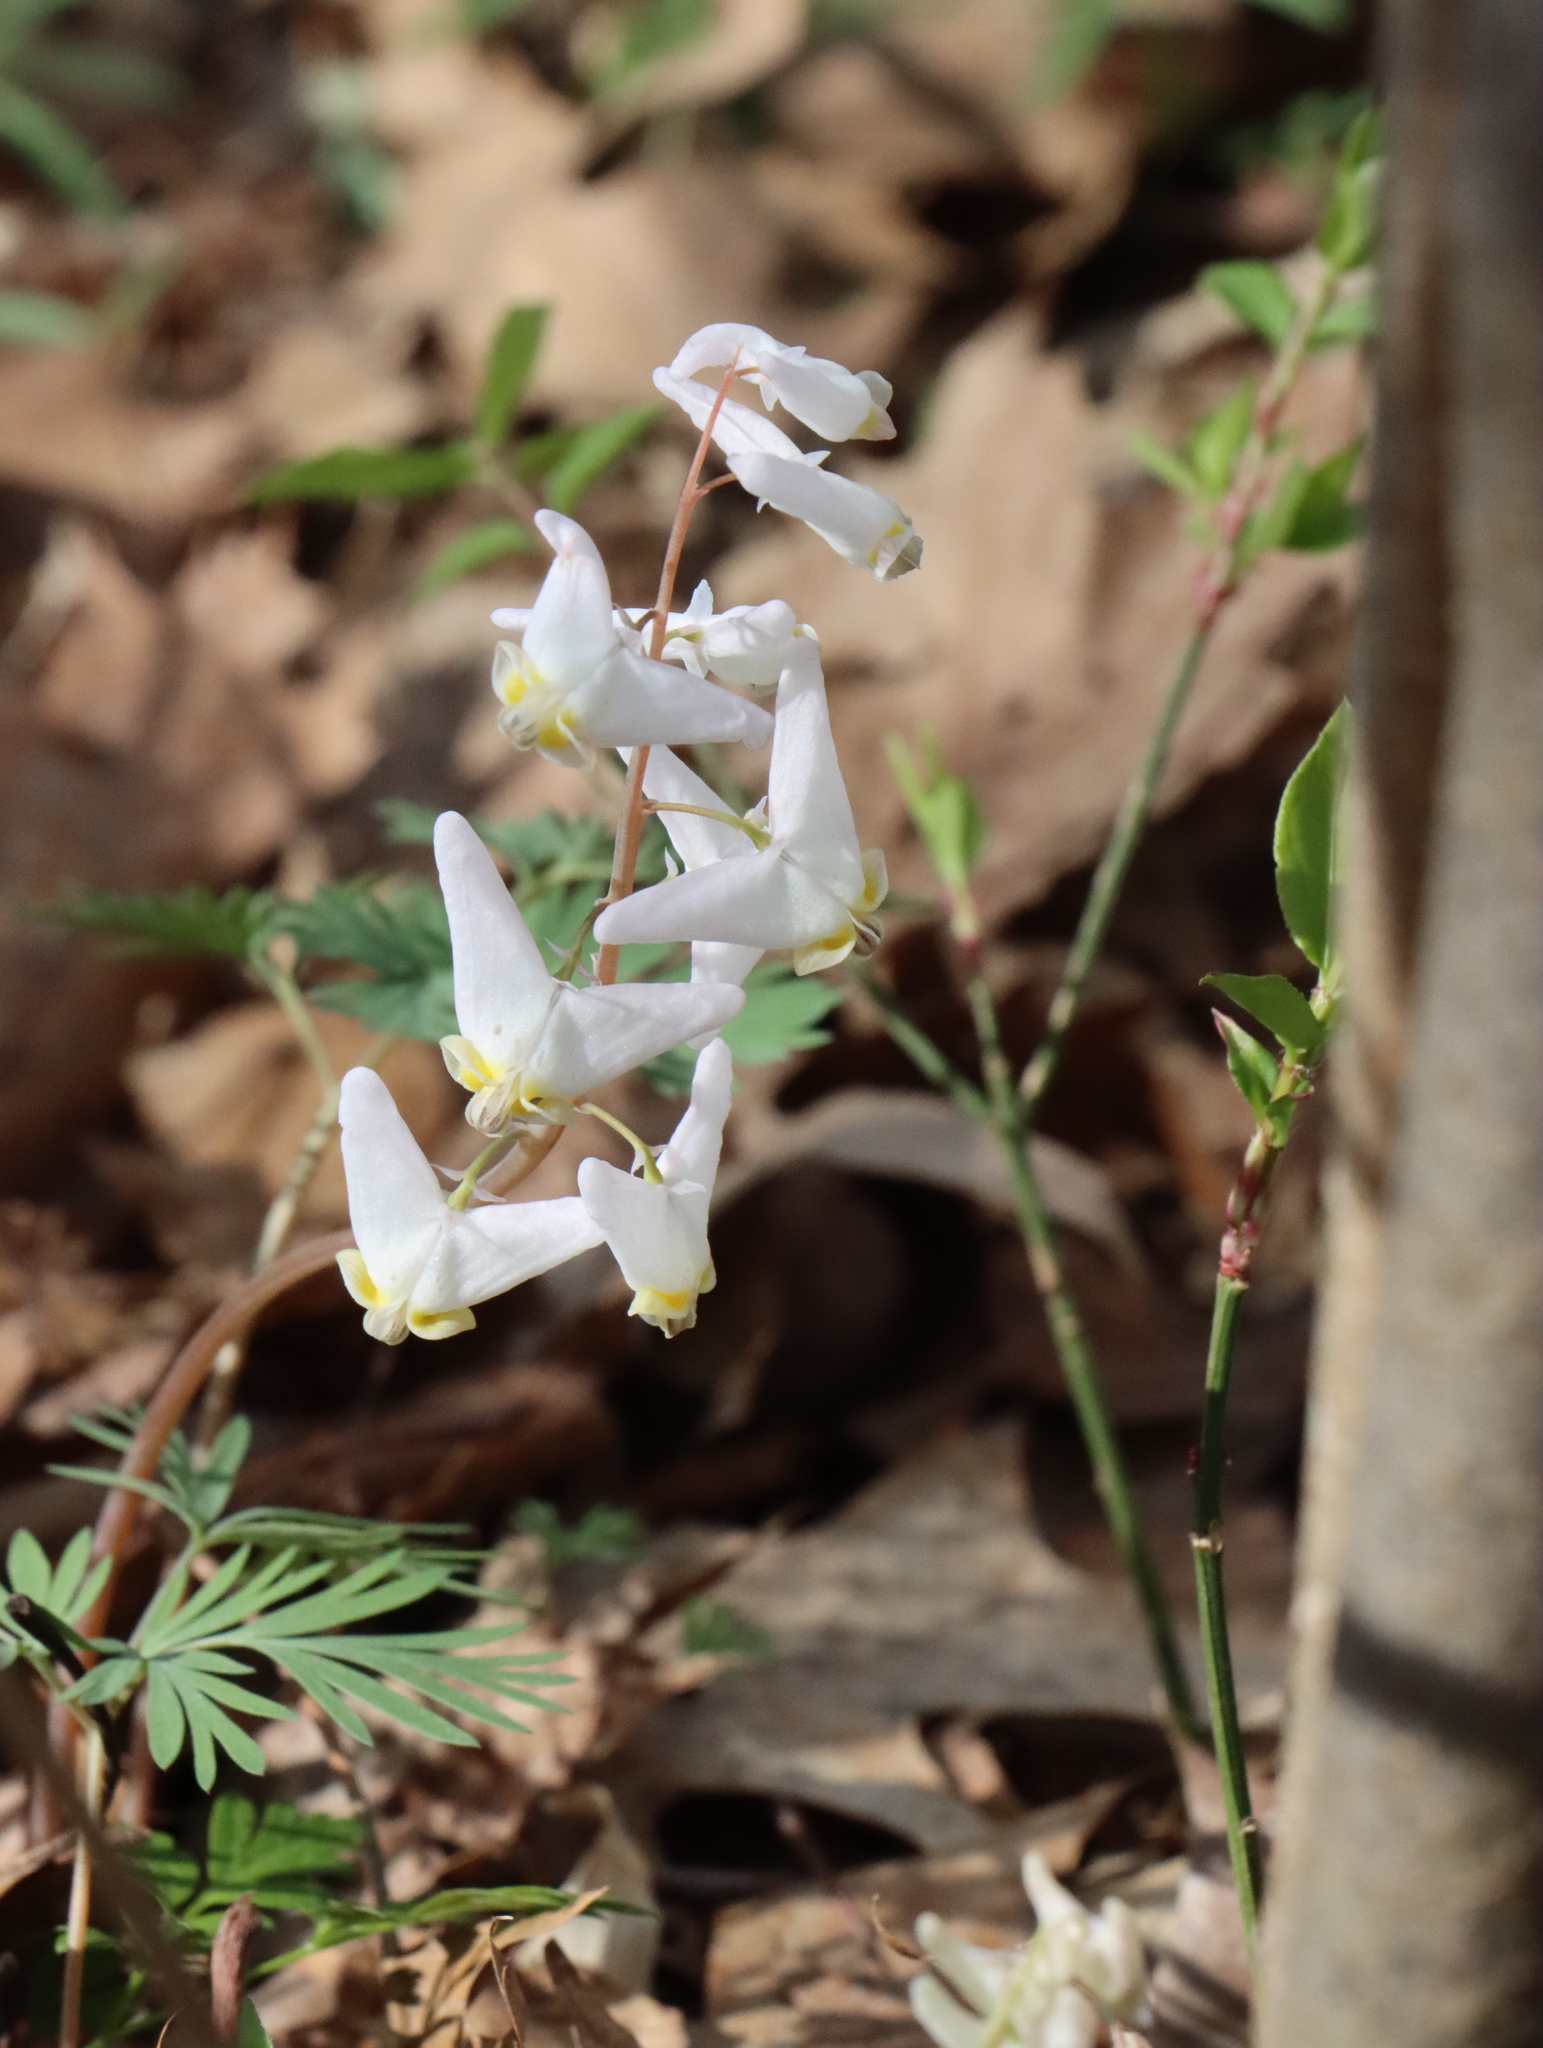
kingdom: Plantae
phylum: Tracheophyta
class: Magnoliopsida
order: Ranunculales
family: Papaveraceae
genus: Dicentra
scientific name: Dicentra cucullaria
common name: Dutchman's breeches
